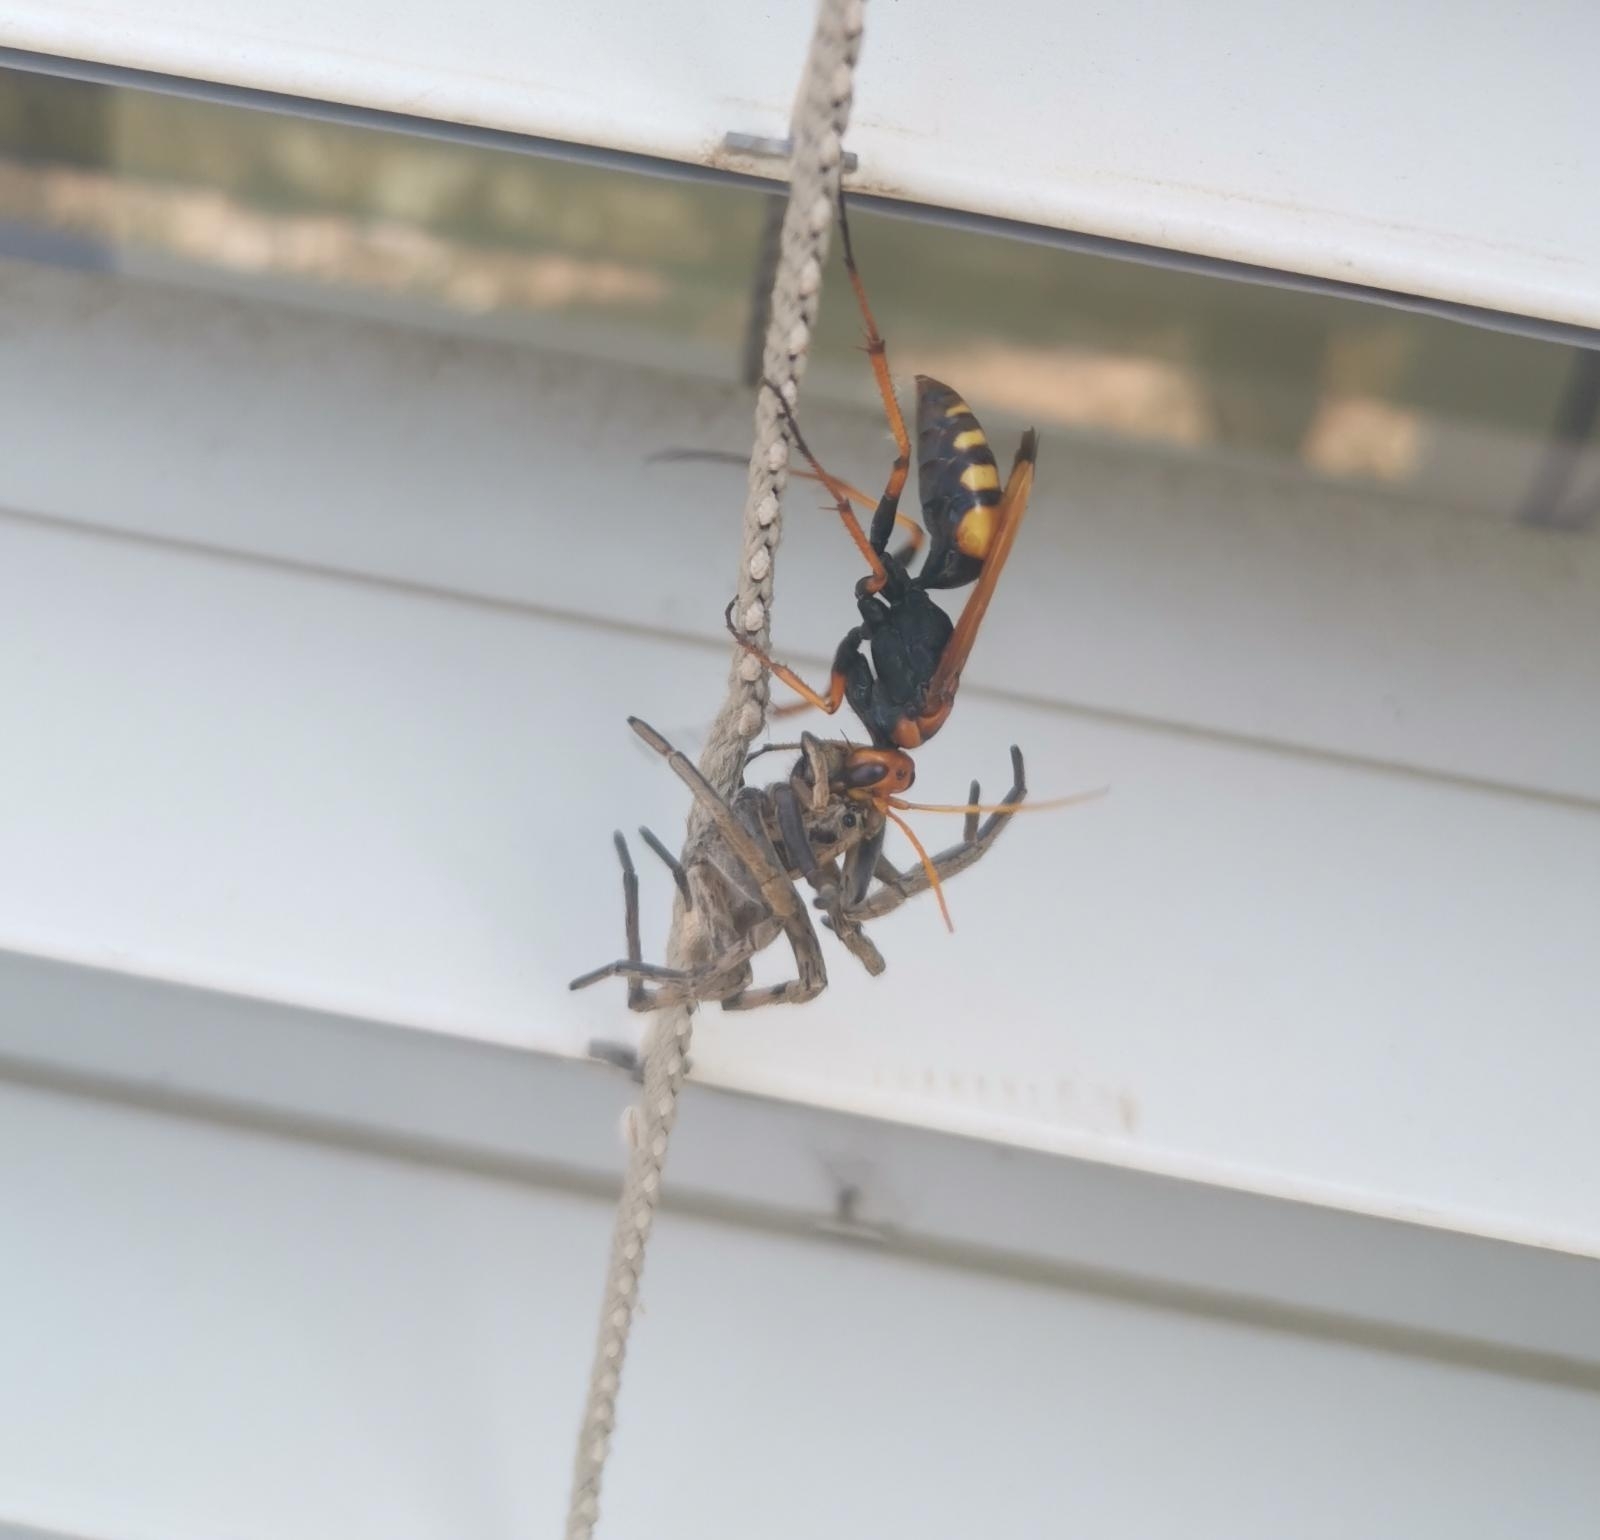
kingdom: Animalia
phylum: Arthropoda
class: Insecta
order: Hymenoptera
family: Pompilidae
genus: Cryptocheilus
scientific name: Cryptocheilus alternatus
